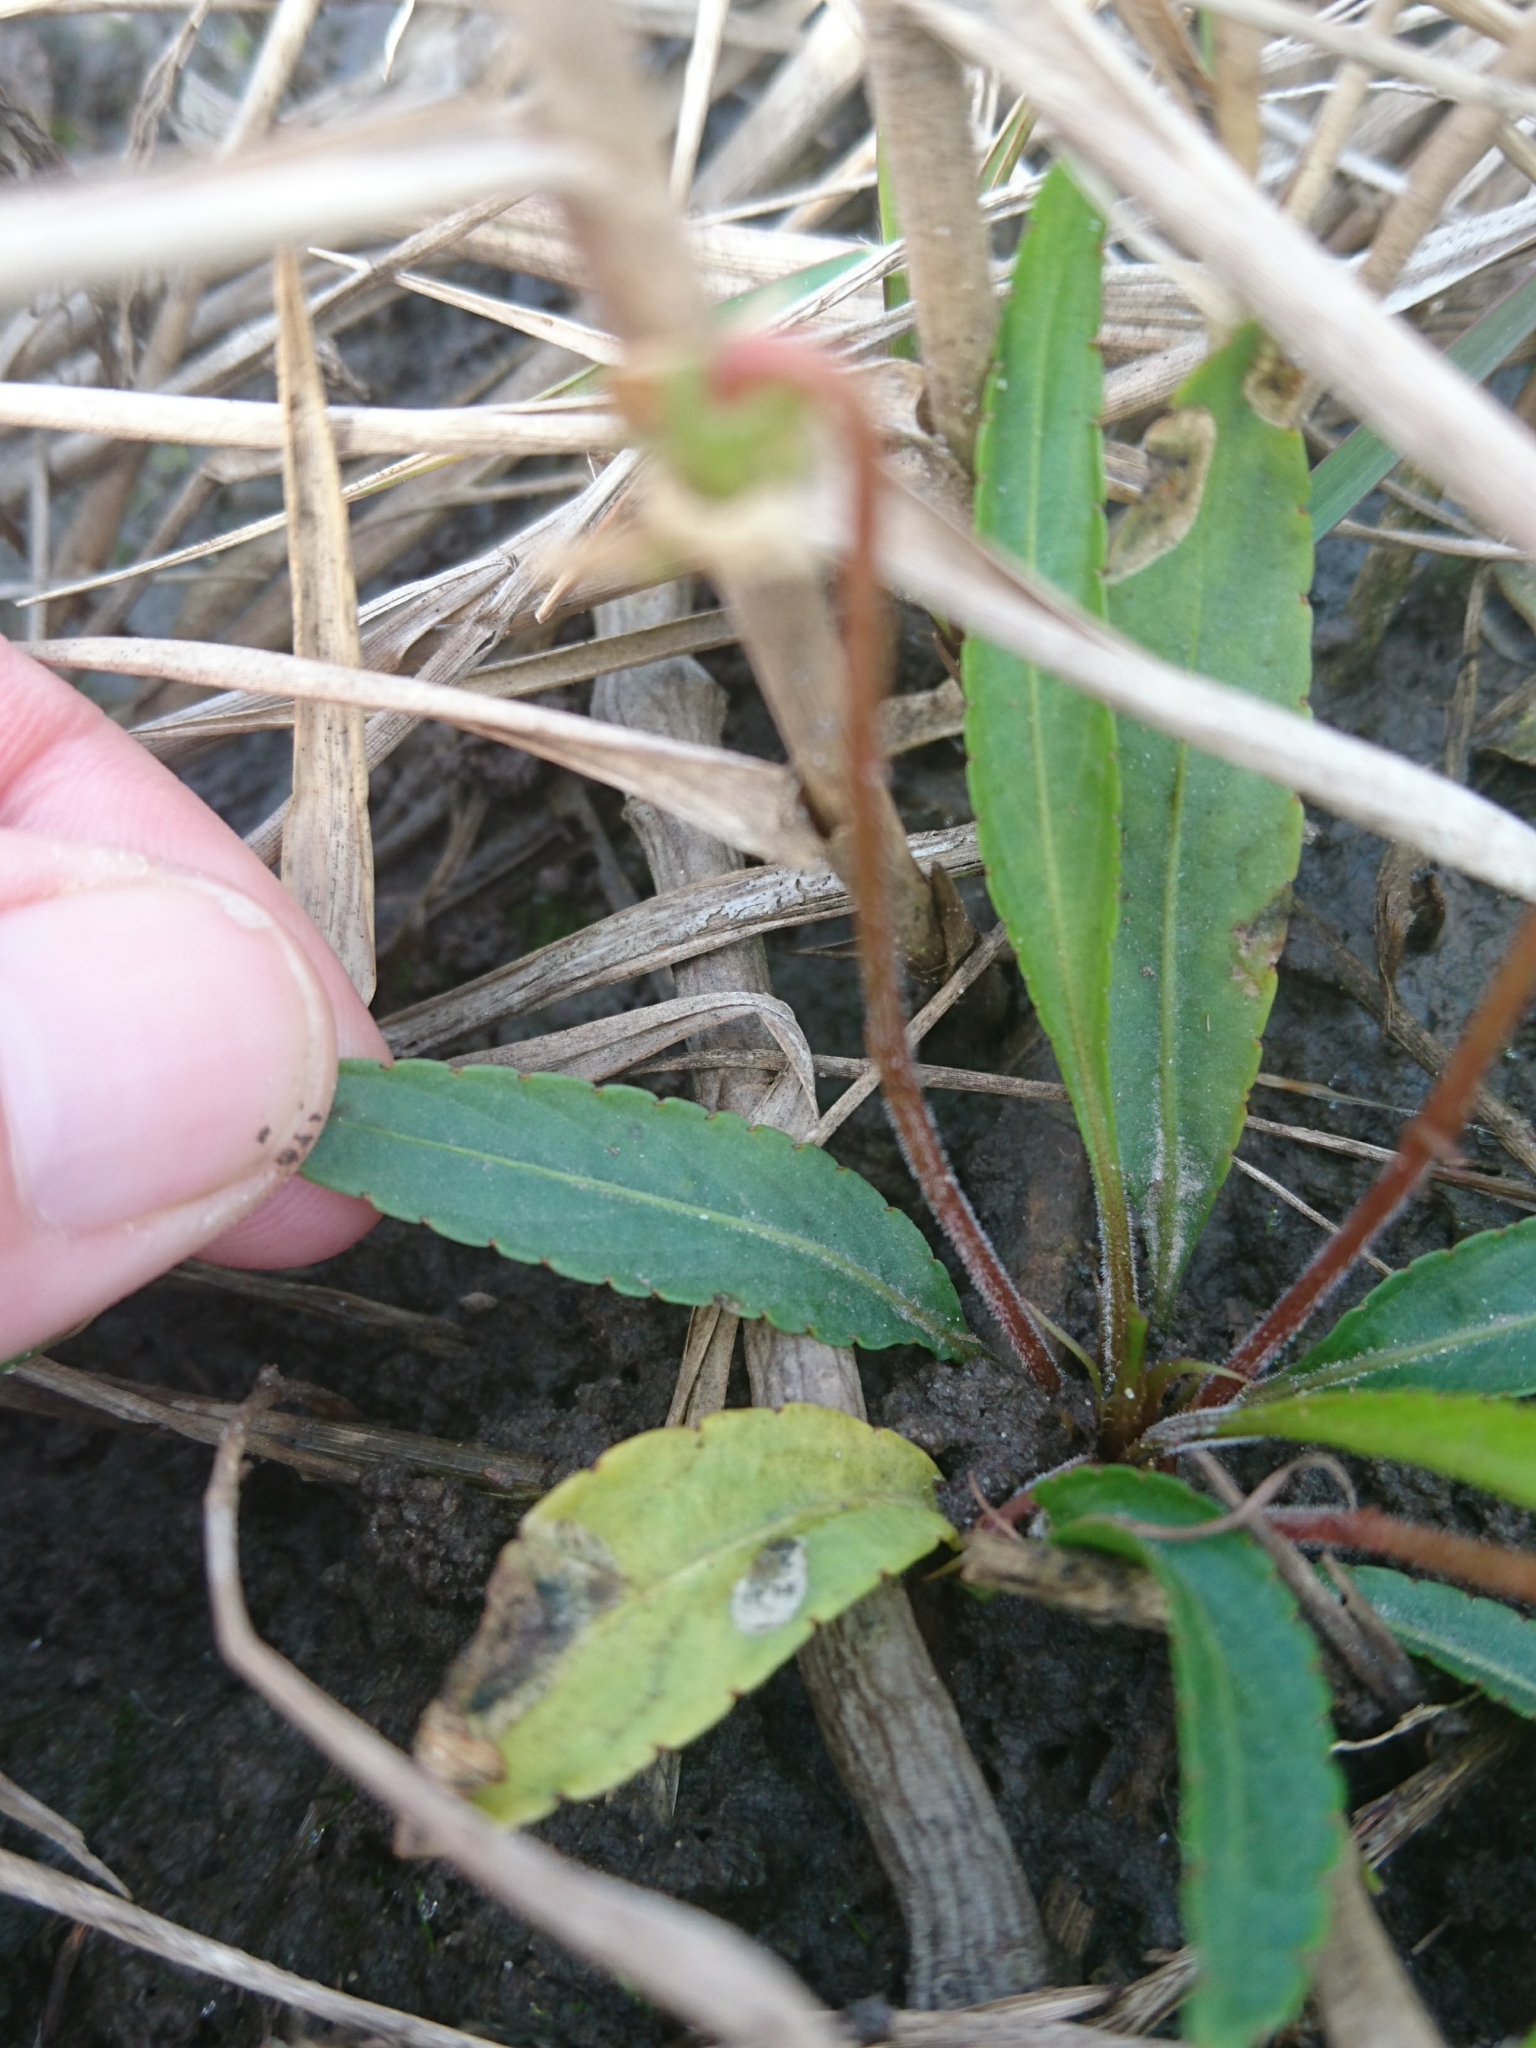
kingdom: Plantae
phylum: Tracheophyta
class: Magnoliopsida
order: Malpighiales
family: Violaceae
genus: Viola
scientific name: Viola lanceolata
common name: Bog white violet
